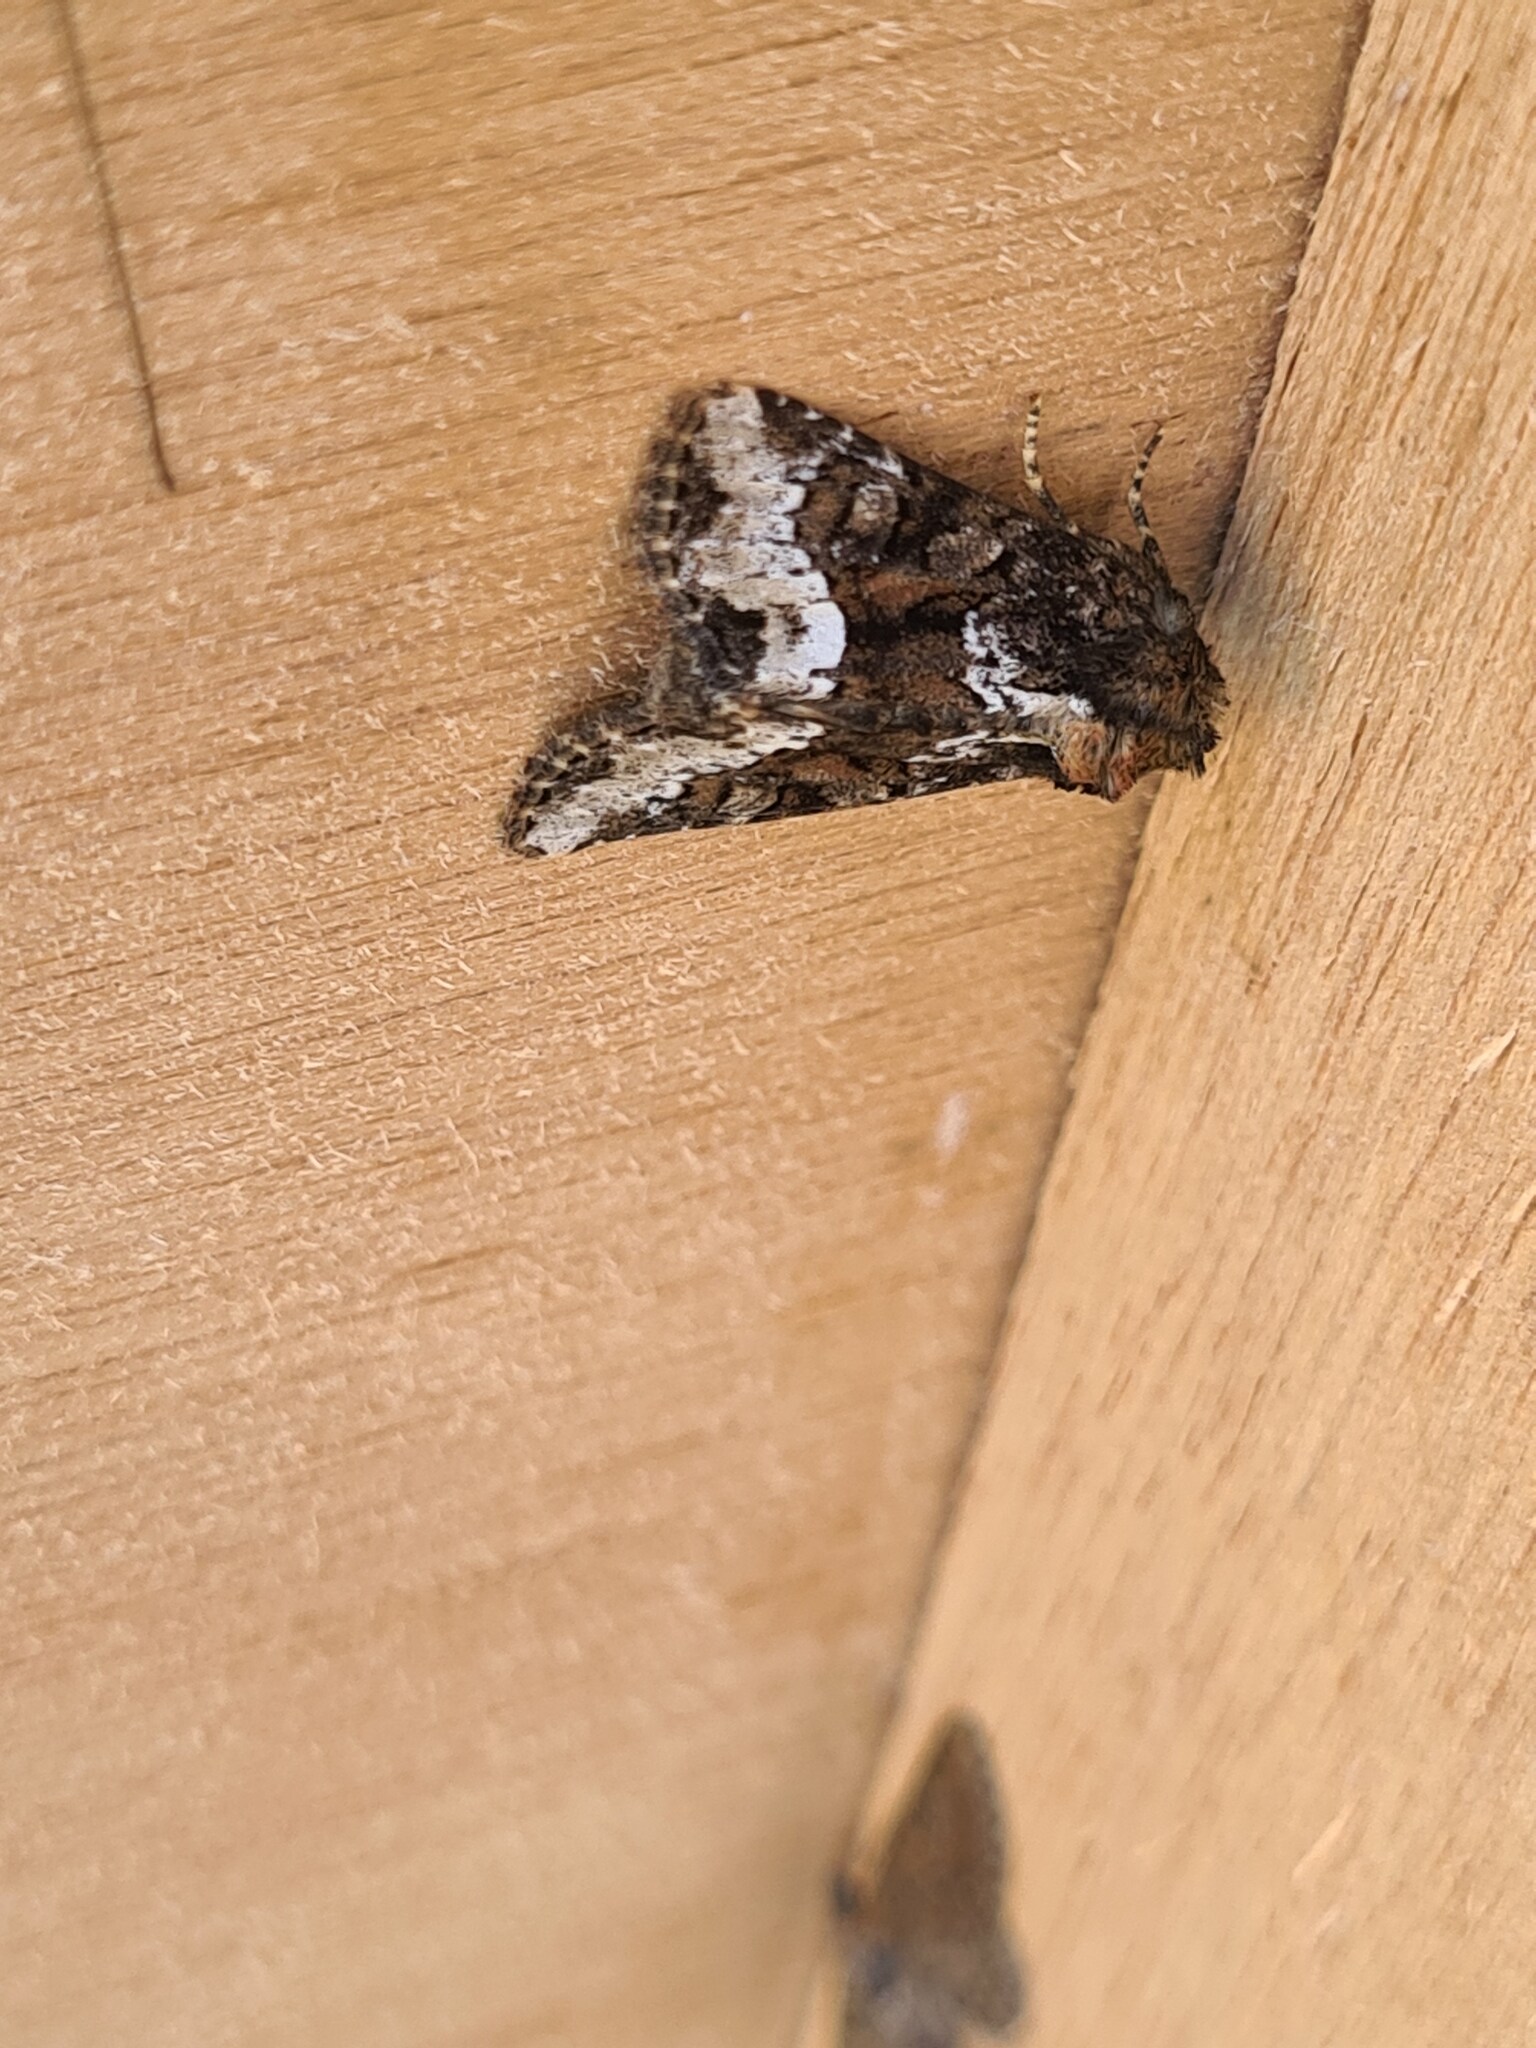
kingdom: Animalia
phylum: Arthropoda
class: Insecta
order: Lepidoptera
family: Noctuidae
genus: Oligia
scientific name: Oligia strigilis
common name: Marbled minor
